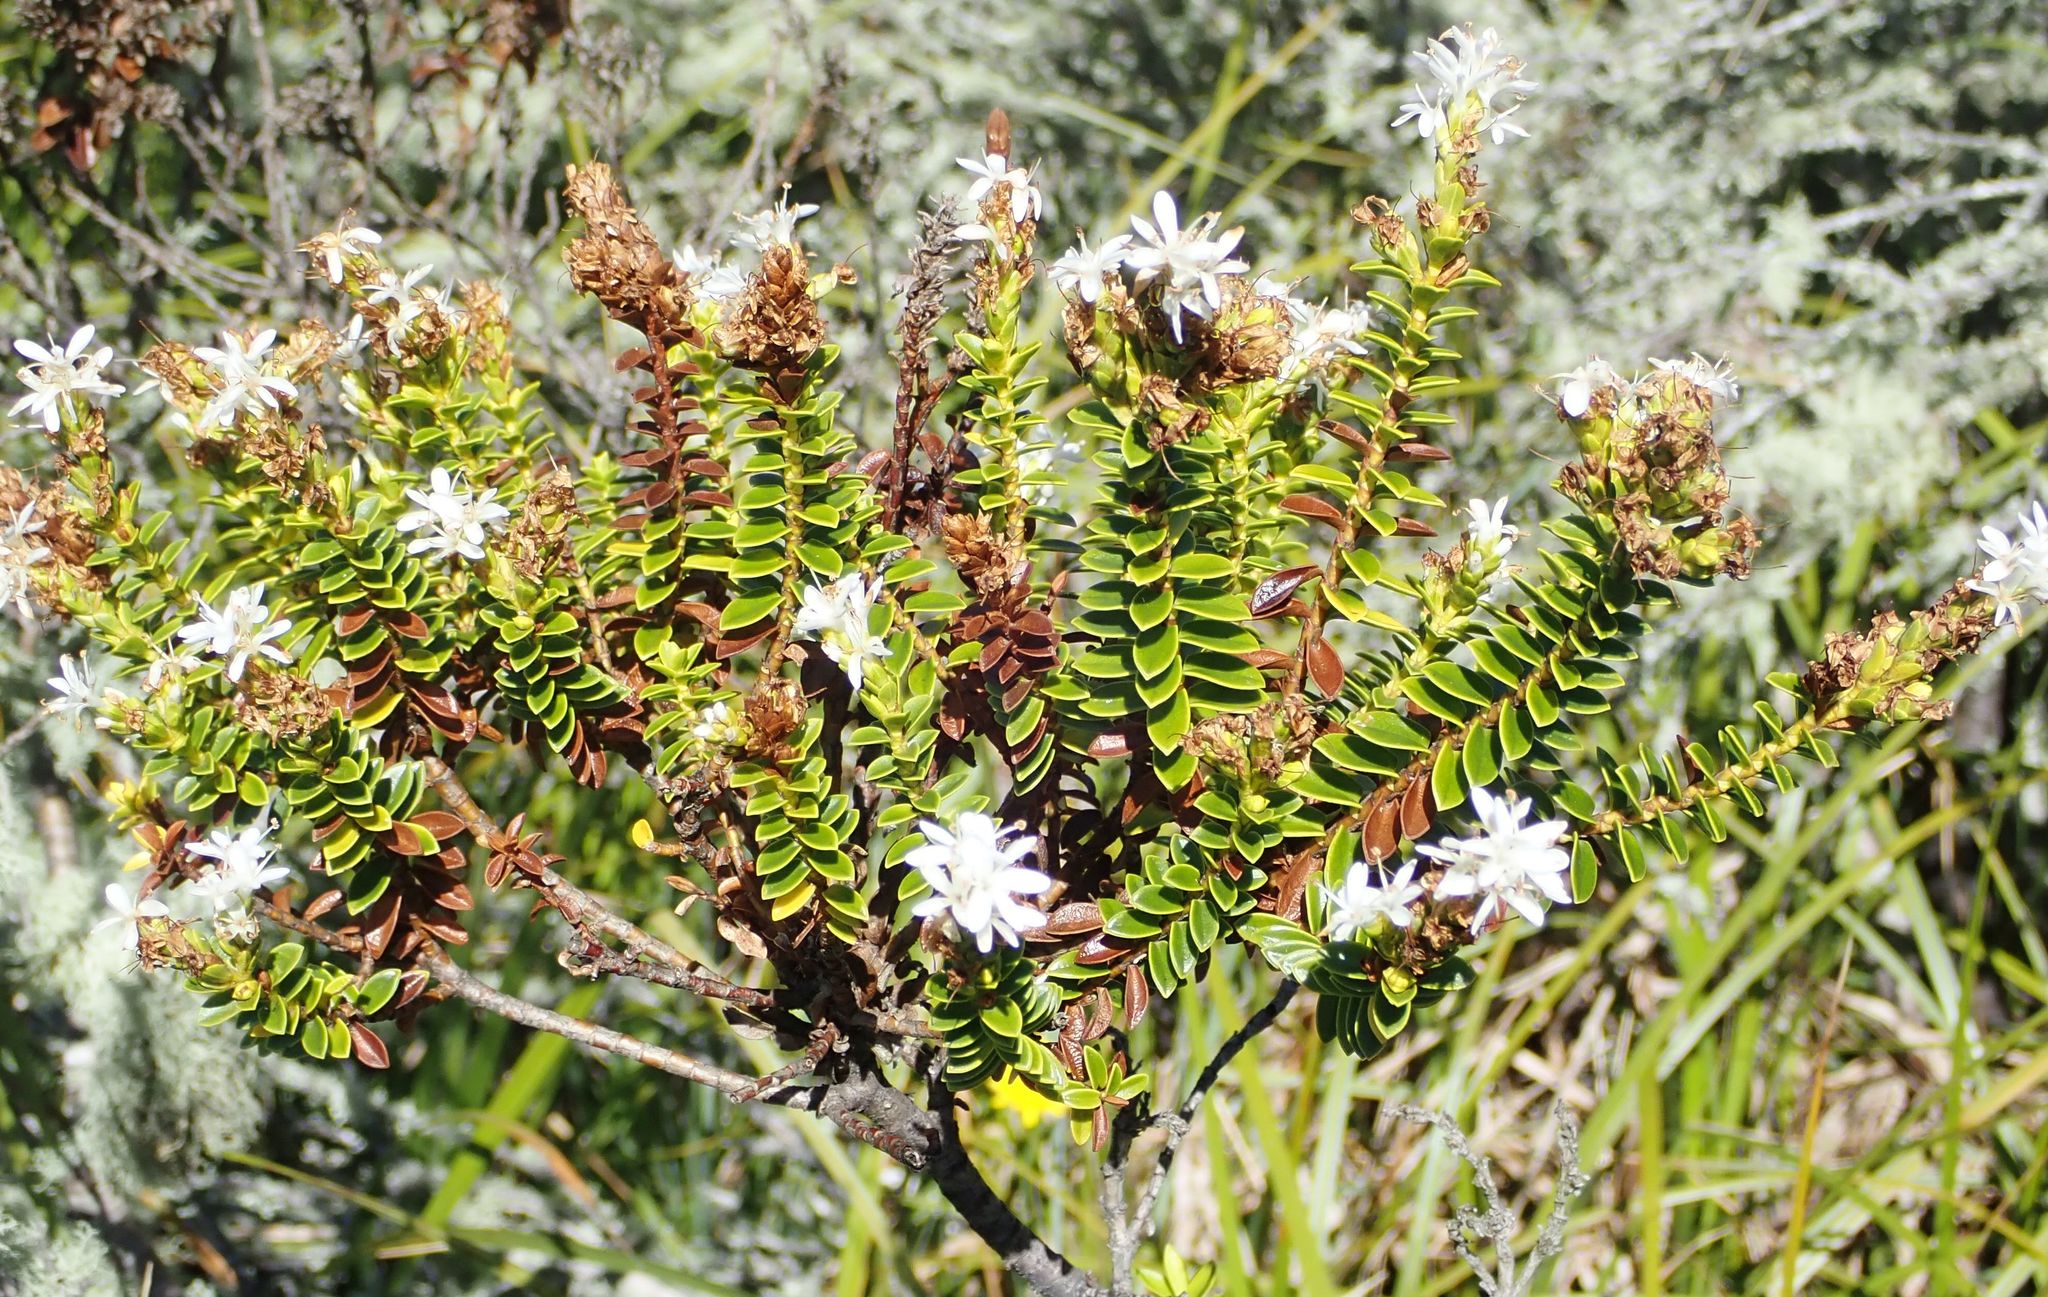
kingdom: Plantae
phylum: Tracheophyta
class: Magnoliopsida
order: Lamiales
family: Plantaginaceae
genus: Veronica
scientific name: Veronica odora
